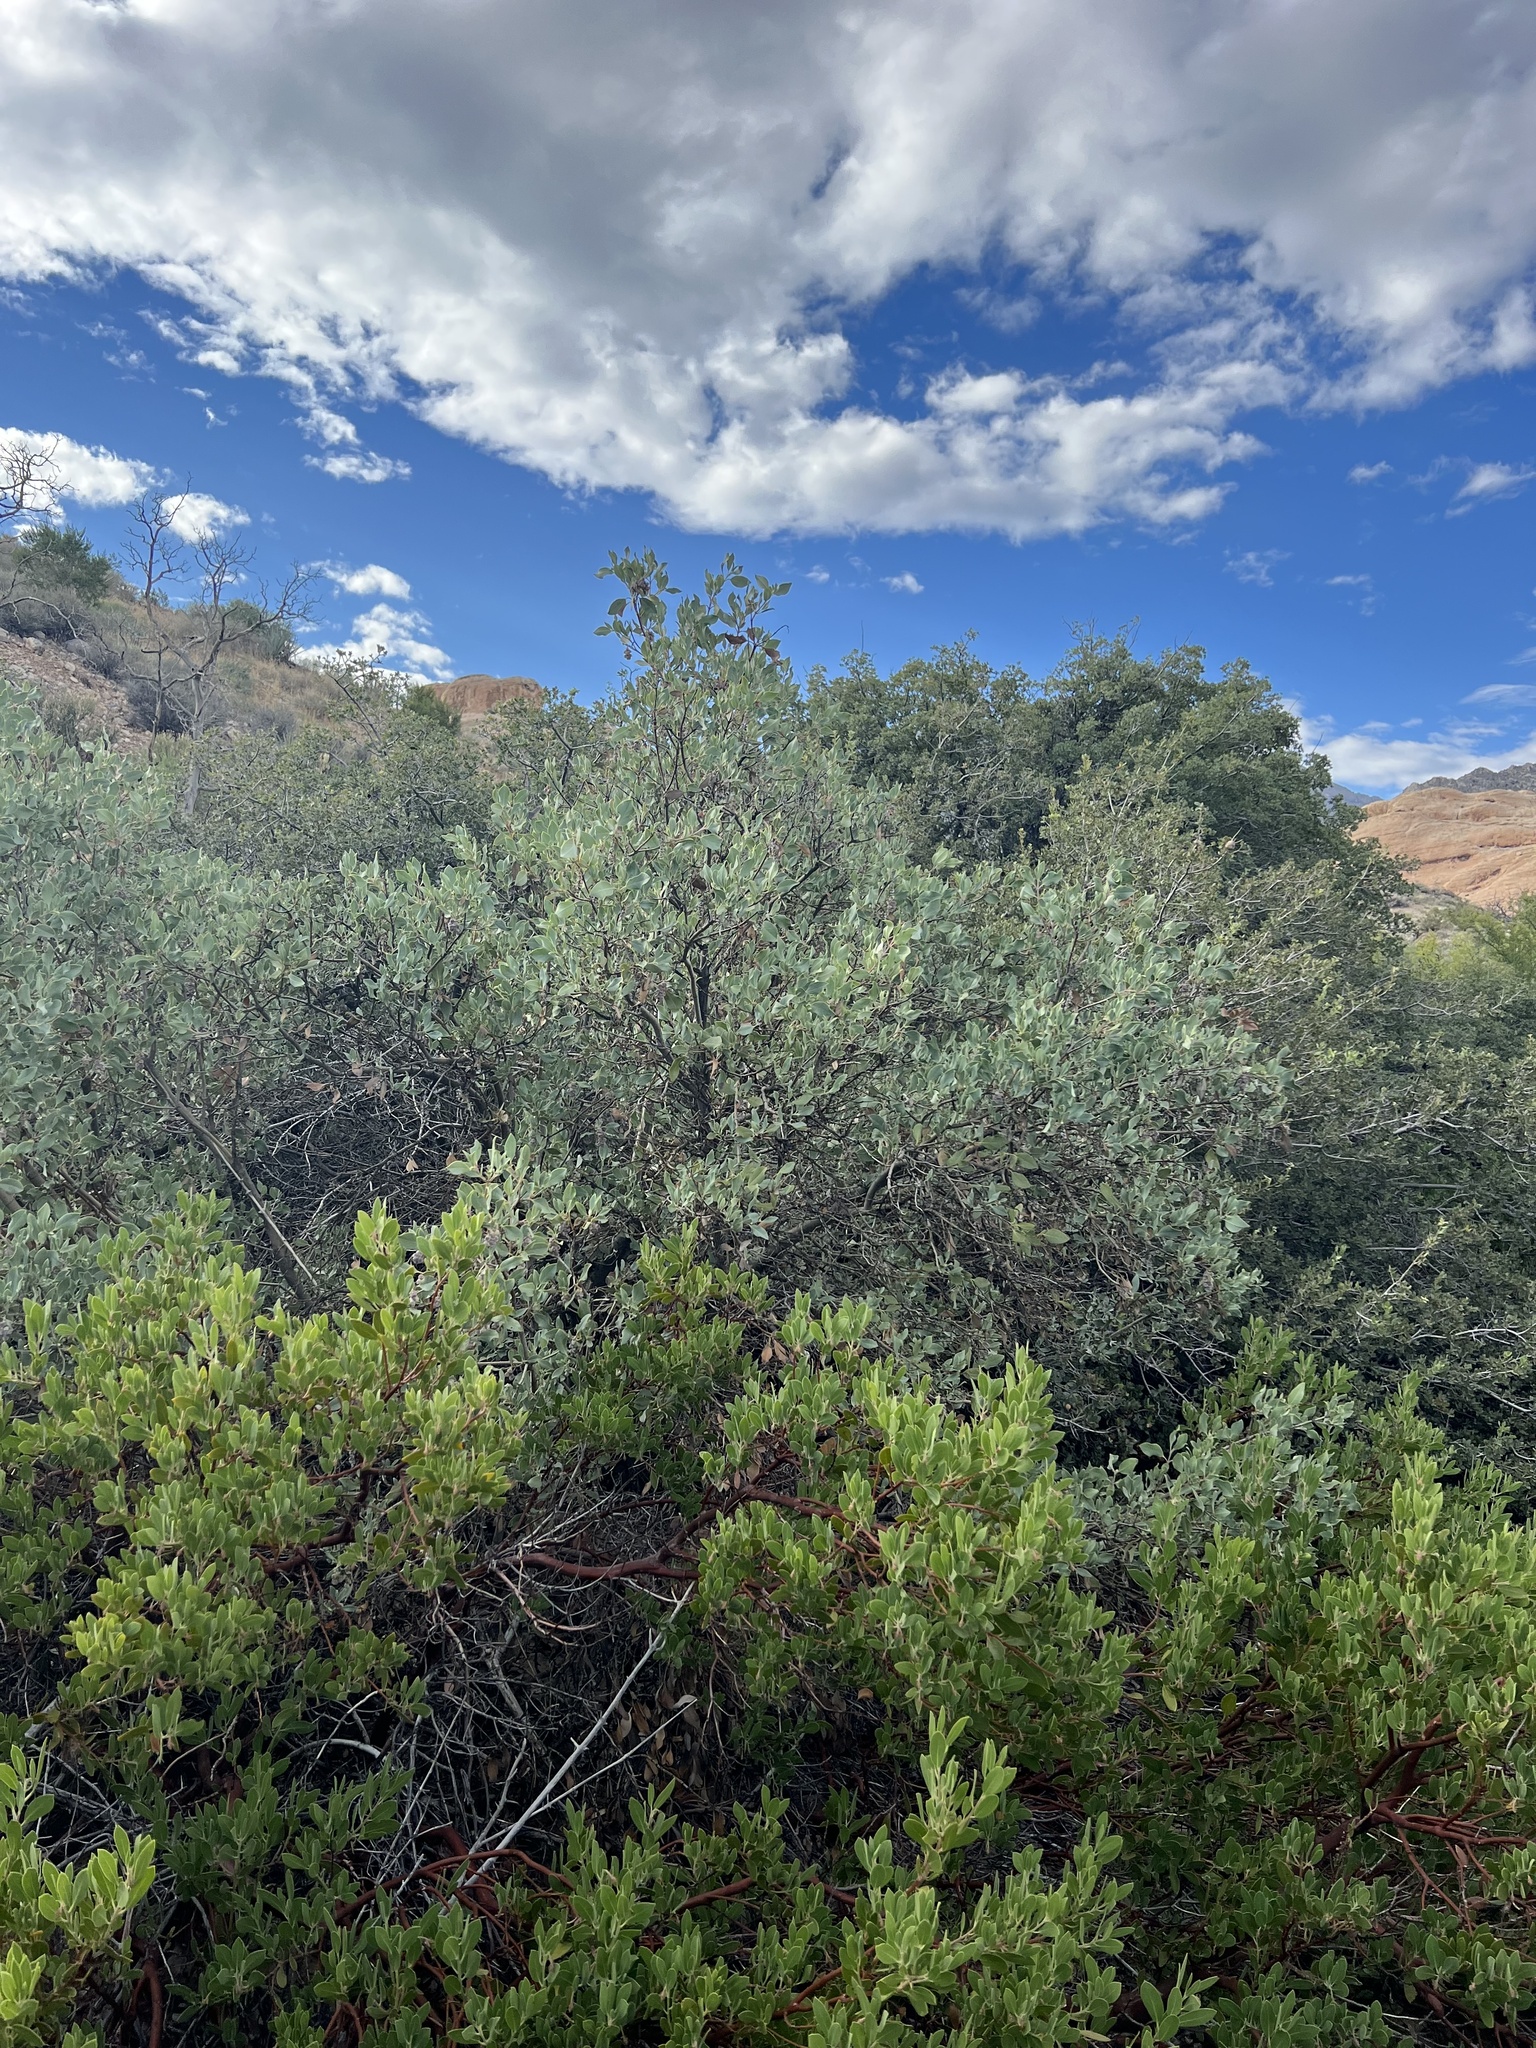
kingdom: Plantae
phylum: Tracheophyta
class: Magnoliopsida
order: Ericales
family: Ericaceae
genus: Arctostaphylos
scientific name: Arctostaphylos pungens
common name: Mexican manzanita
